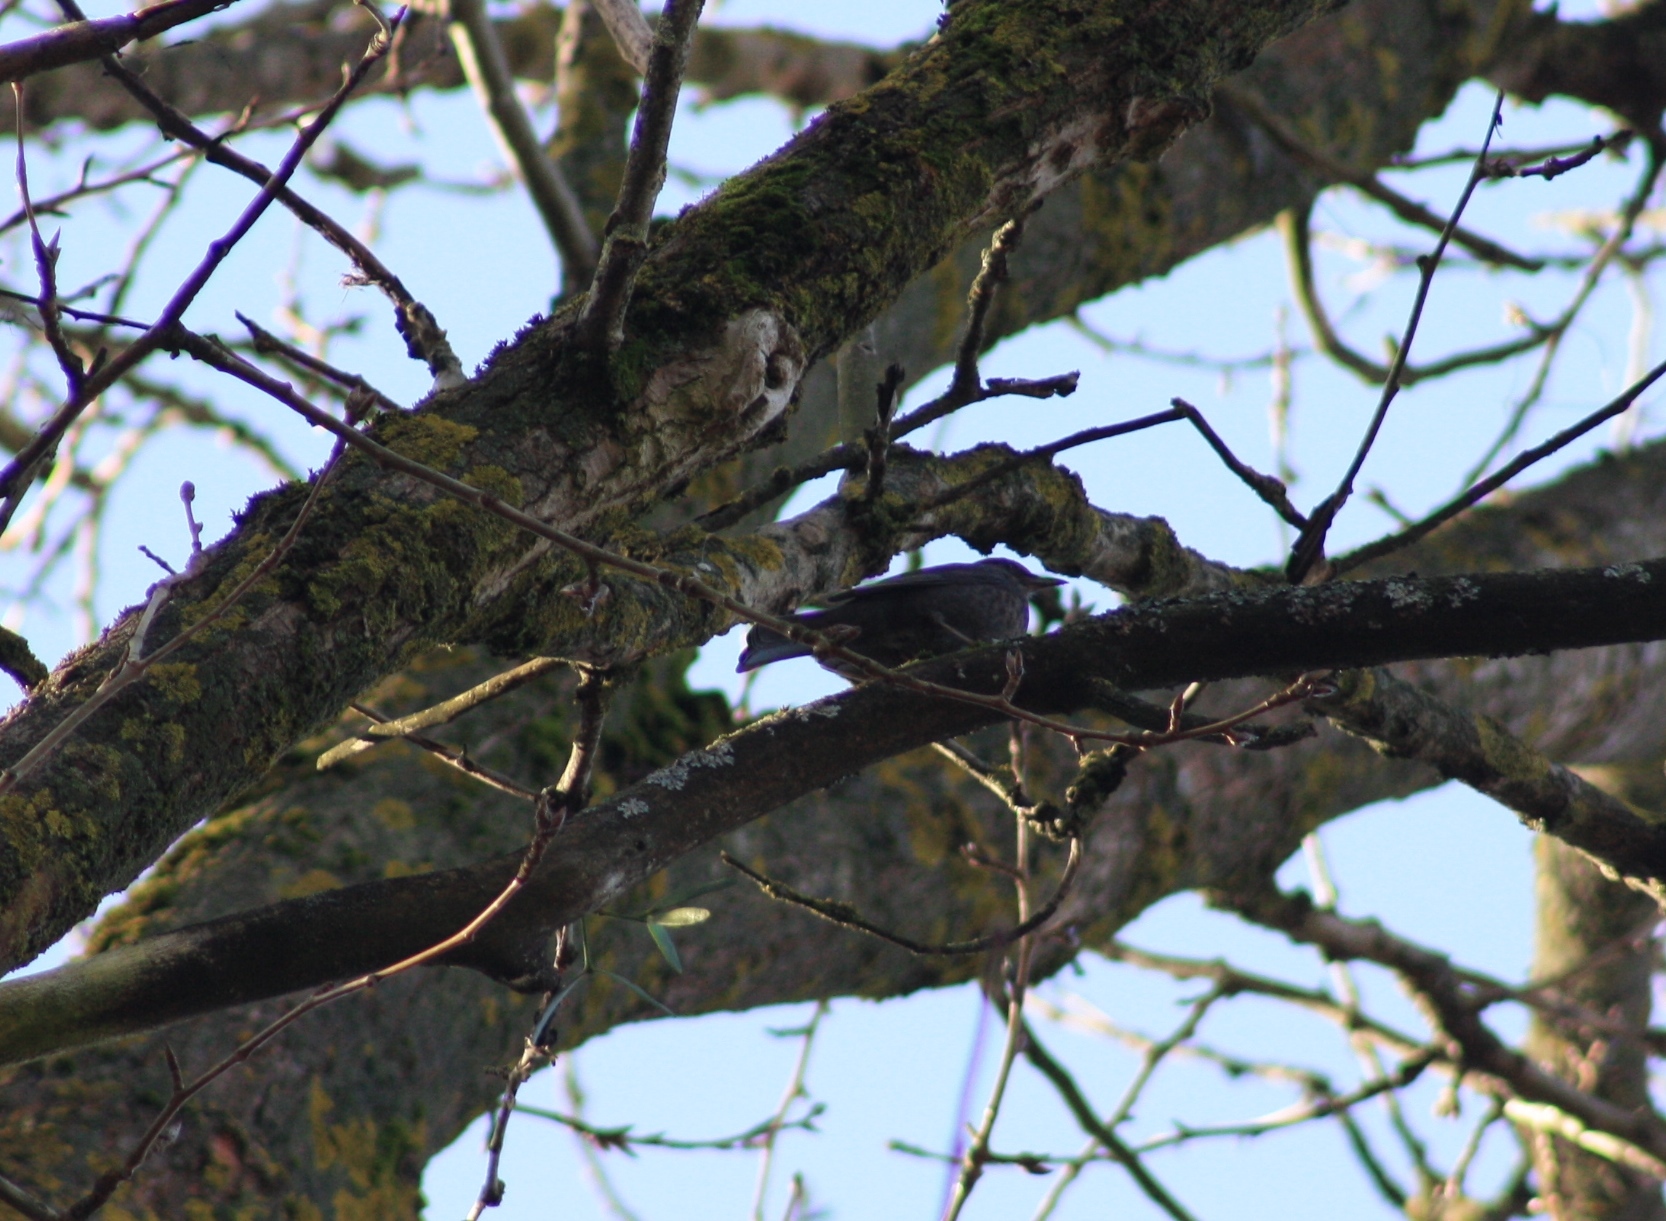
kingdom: Animalia
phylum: Chordata
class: Aves
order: Passeriformes
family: Turdidae
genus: Turdus
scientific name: Turdus merula
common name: Common blackbird
